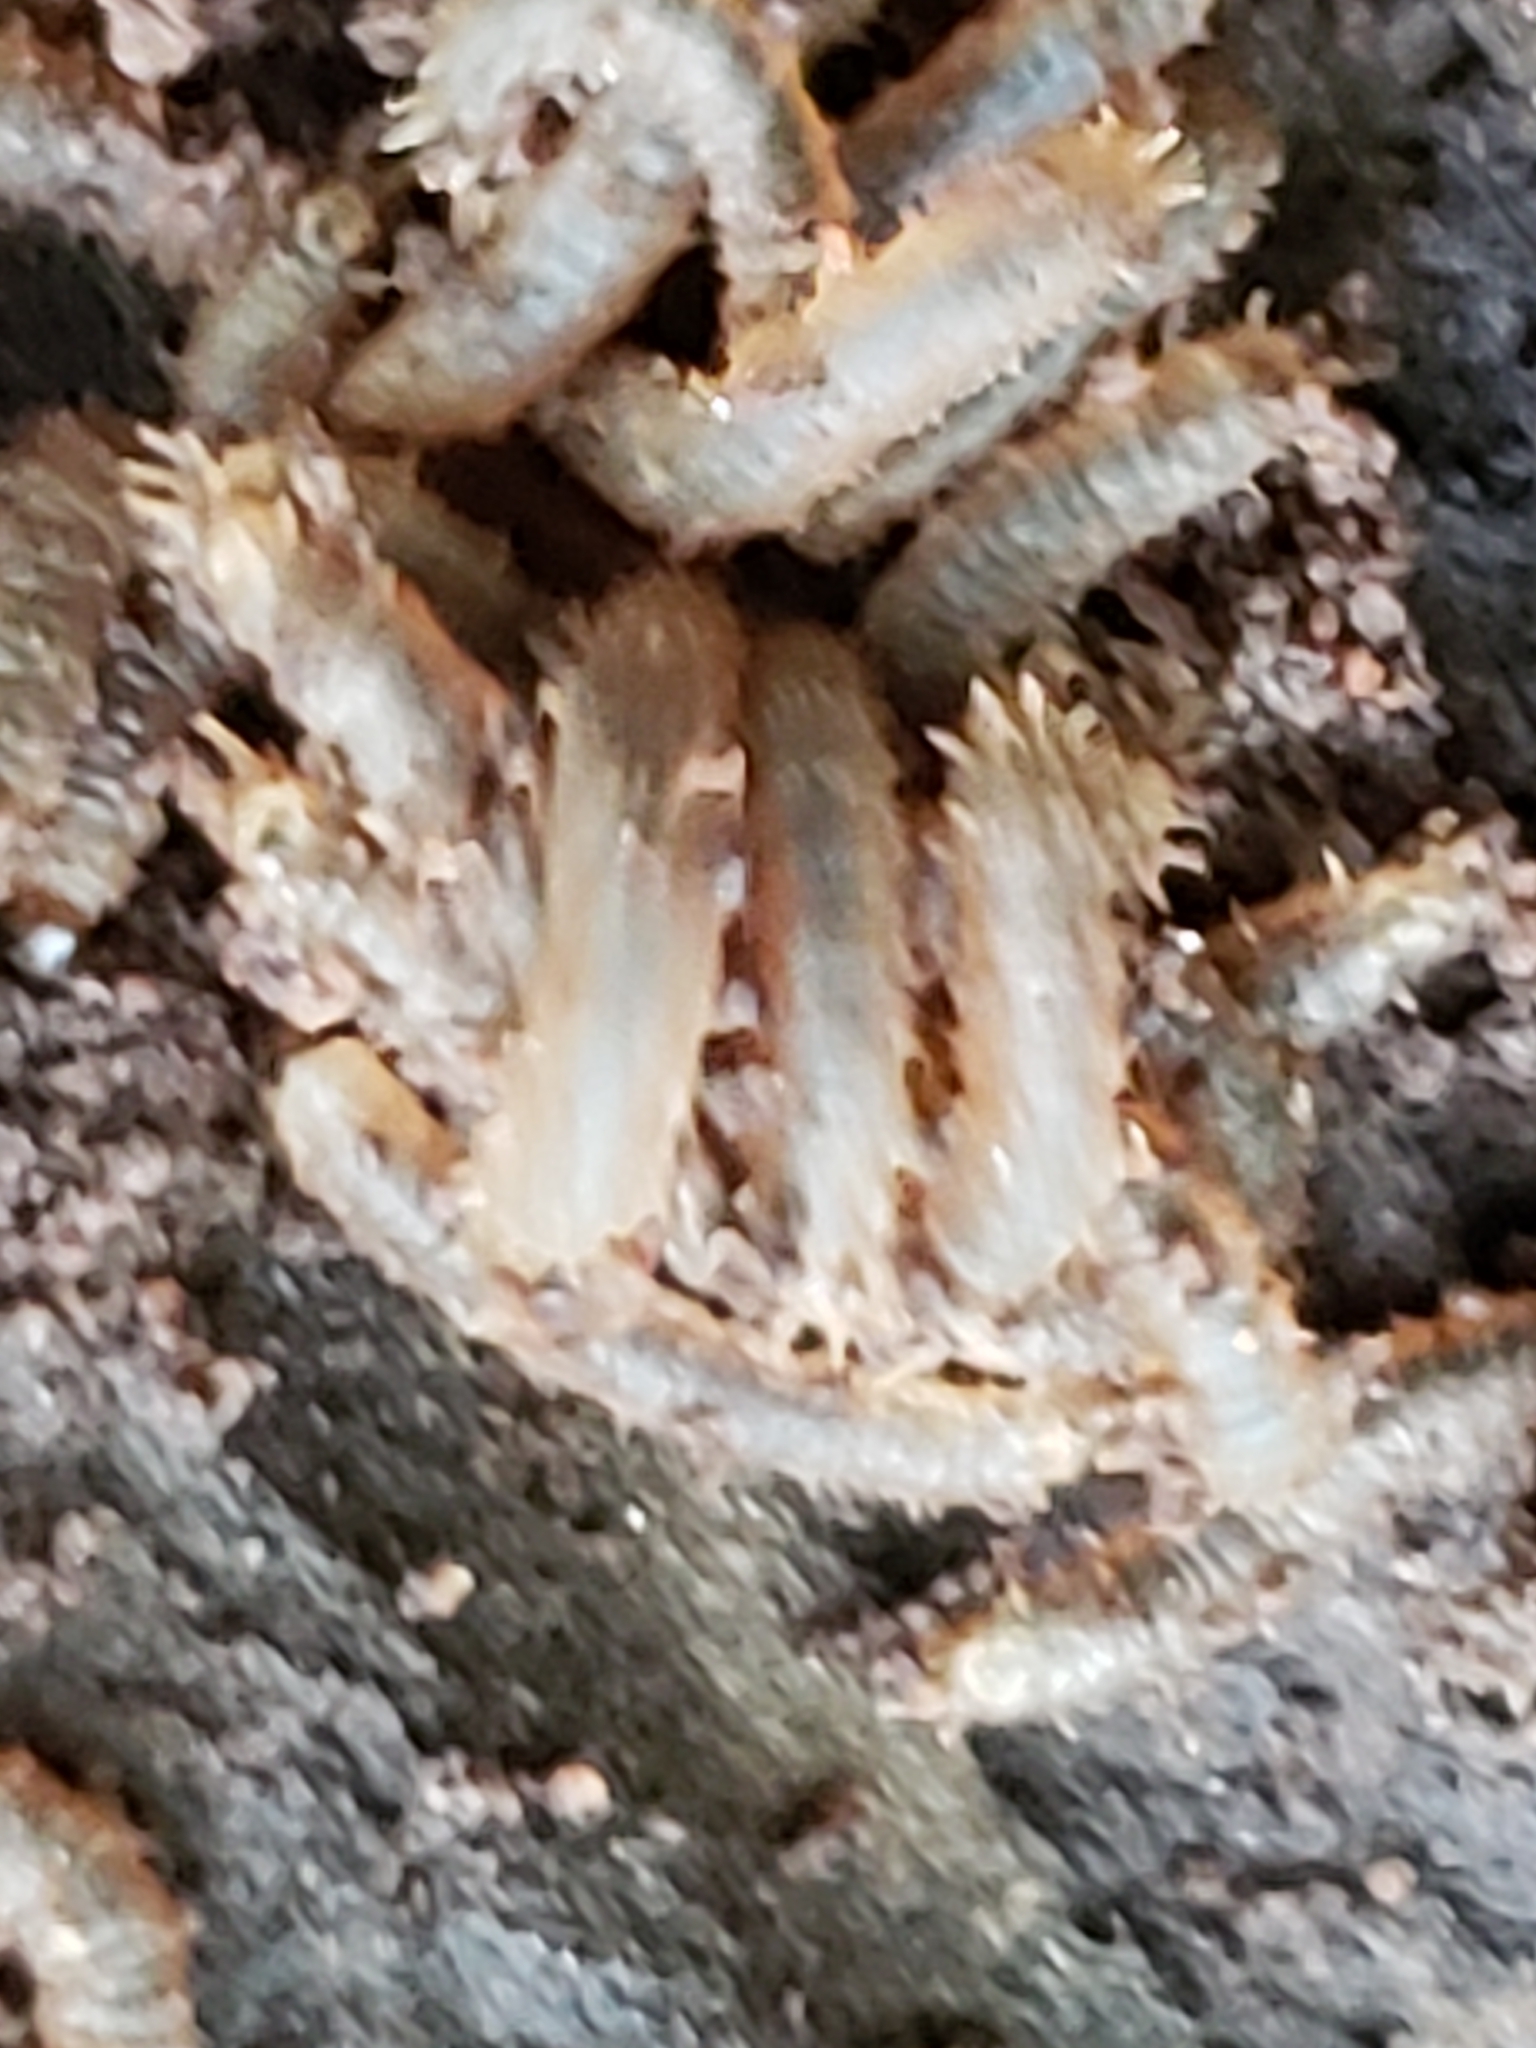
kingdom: Animalia
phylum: Arthropoda
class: Insecta
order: Diptera
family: Bibionidae
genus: Bibio
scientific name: Bibio
